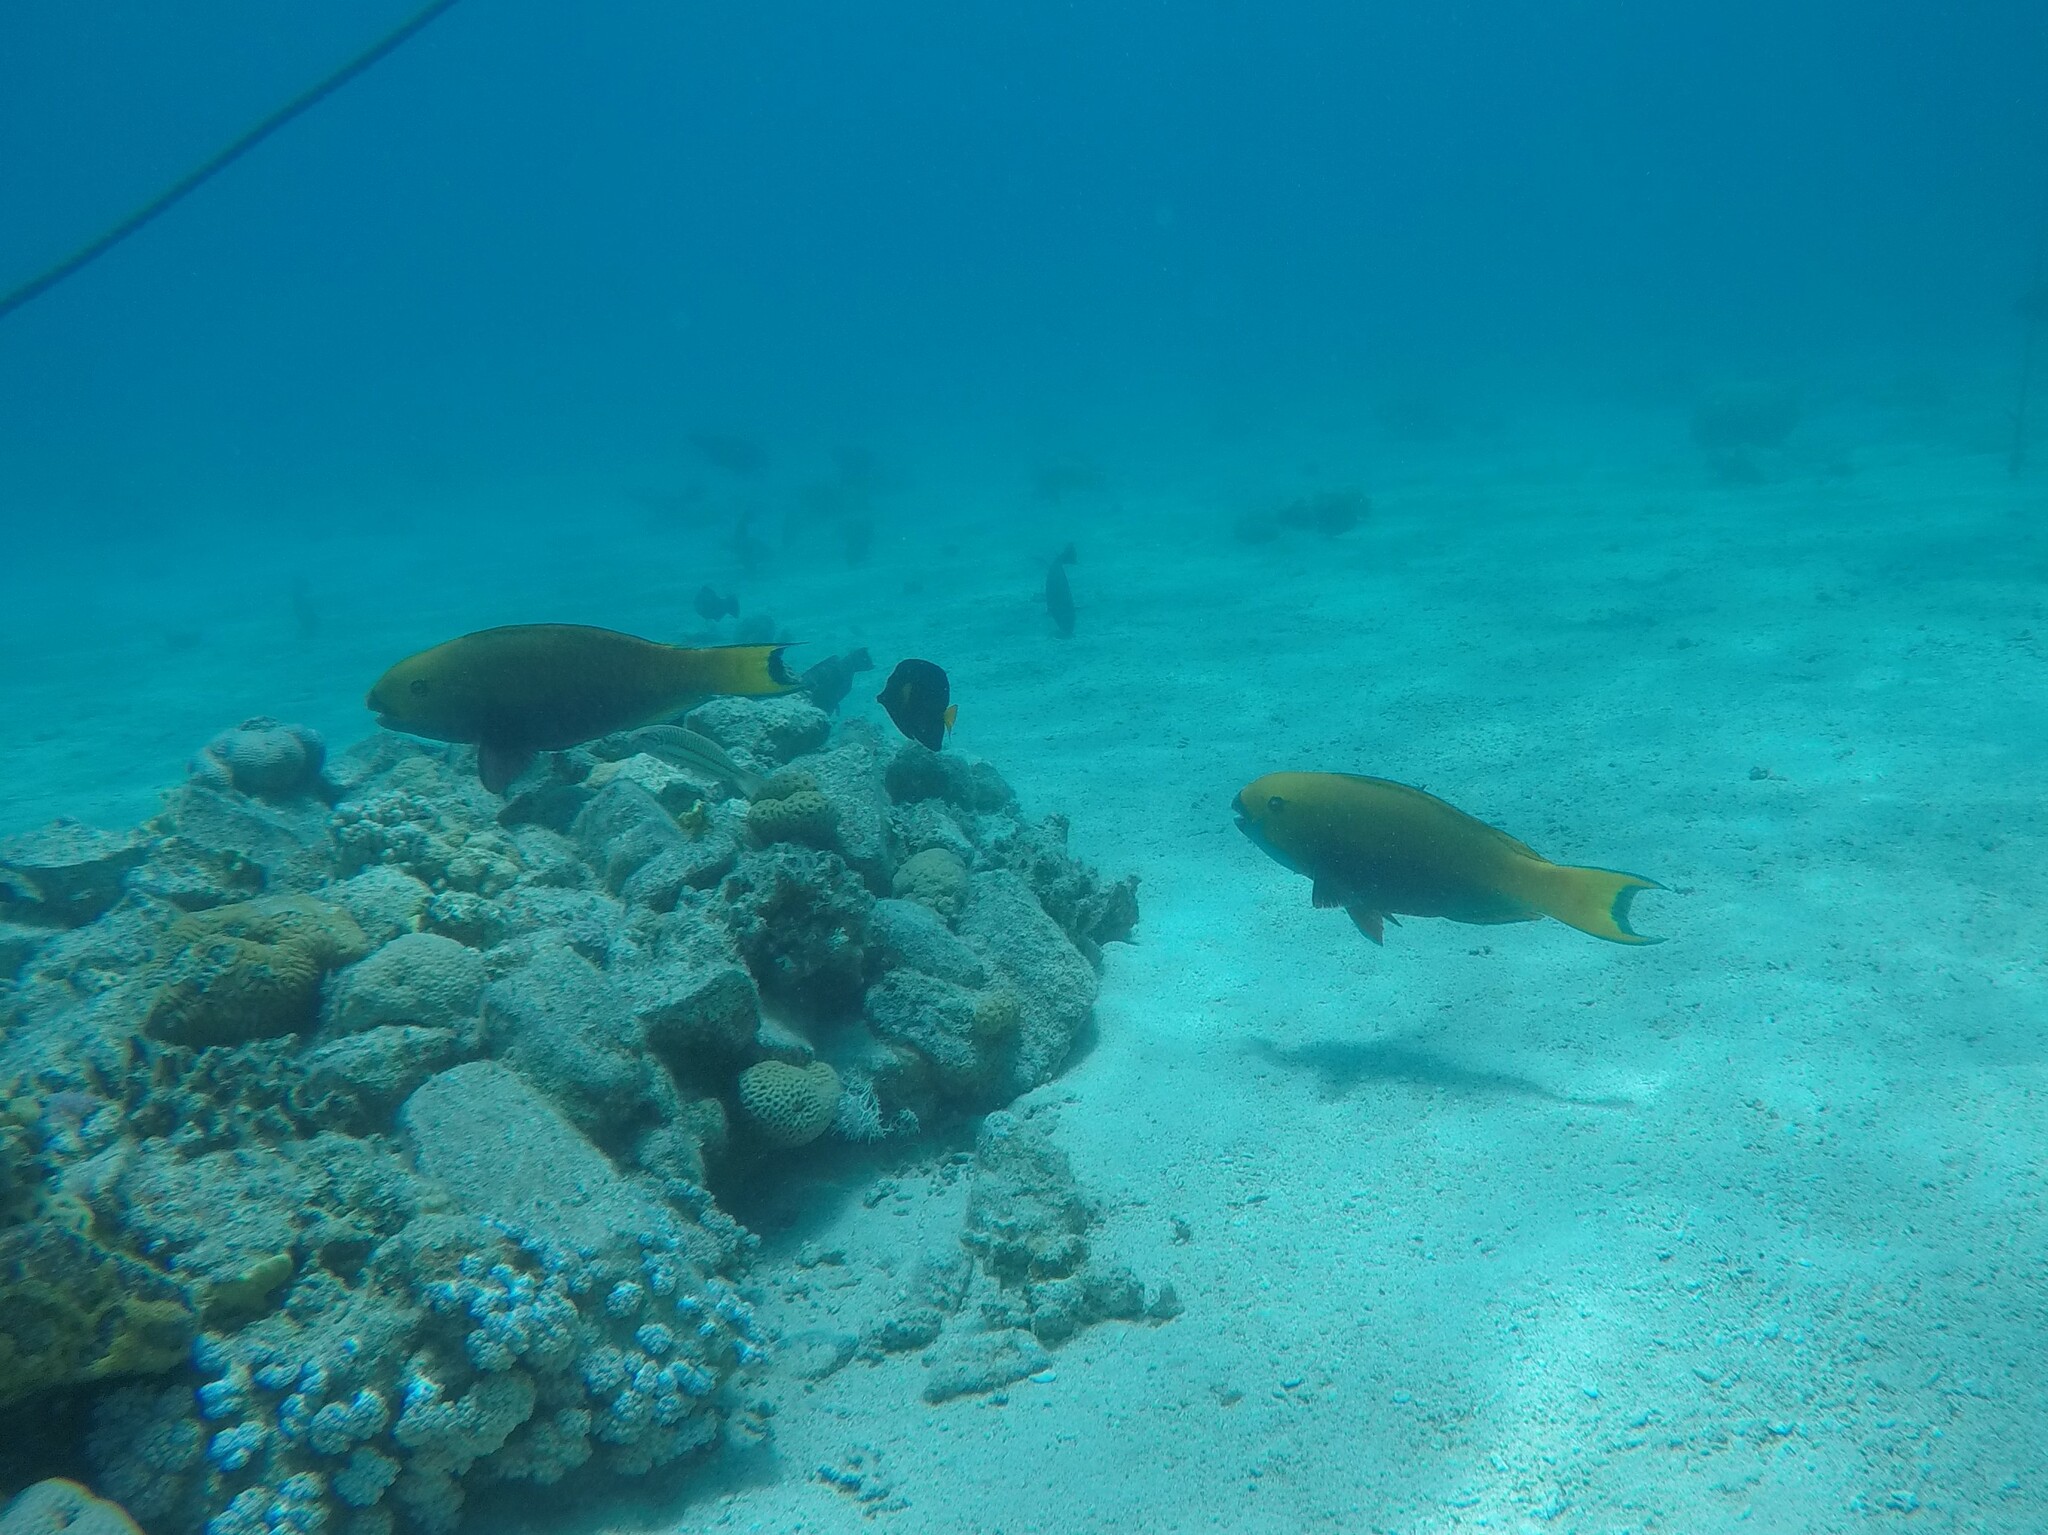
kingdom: Animalia
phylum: Chordata
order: Perciformes
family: Scaridae
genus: Chlorurus
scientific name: Chlorurus gibbus
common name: Heavybeak parrotfish
